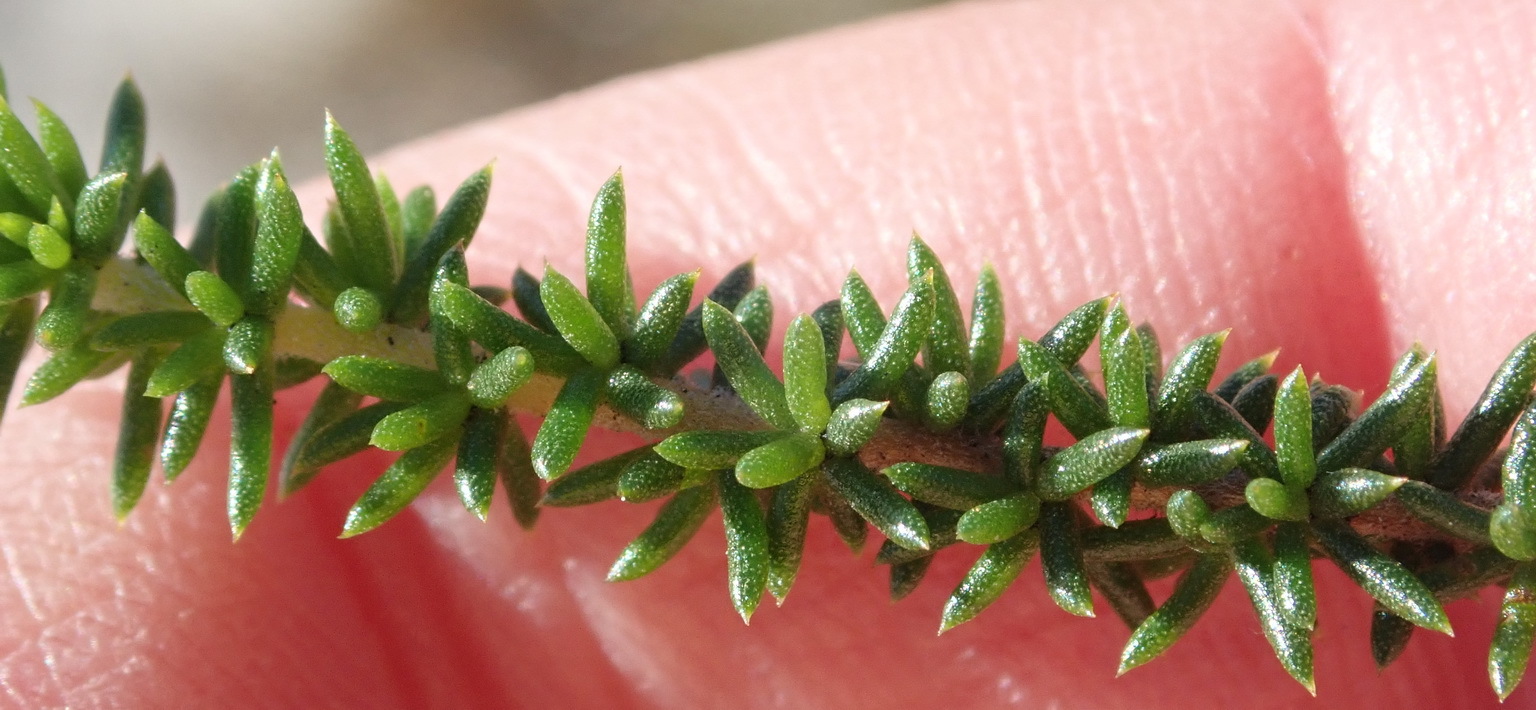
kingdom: Plantae
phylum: Tracheophyta
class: Magnoliopsida
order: Fabales
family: Fabaceae
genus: Aspalathus
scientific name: Aspalathus crassisepala
